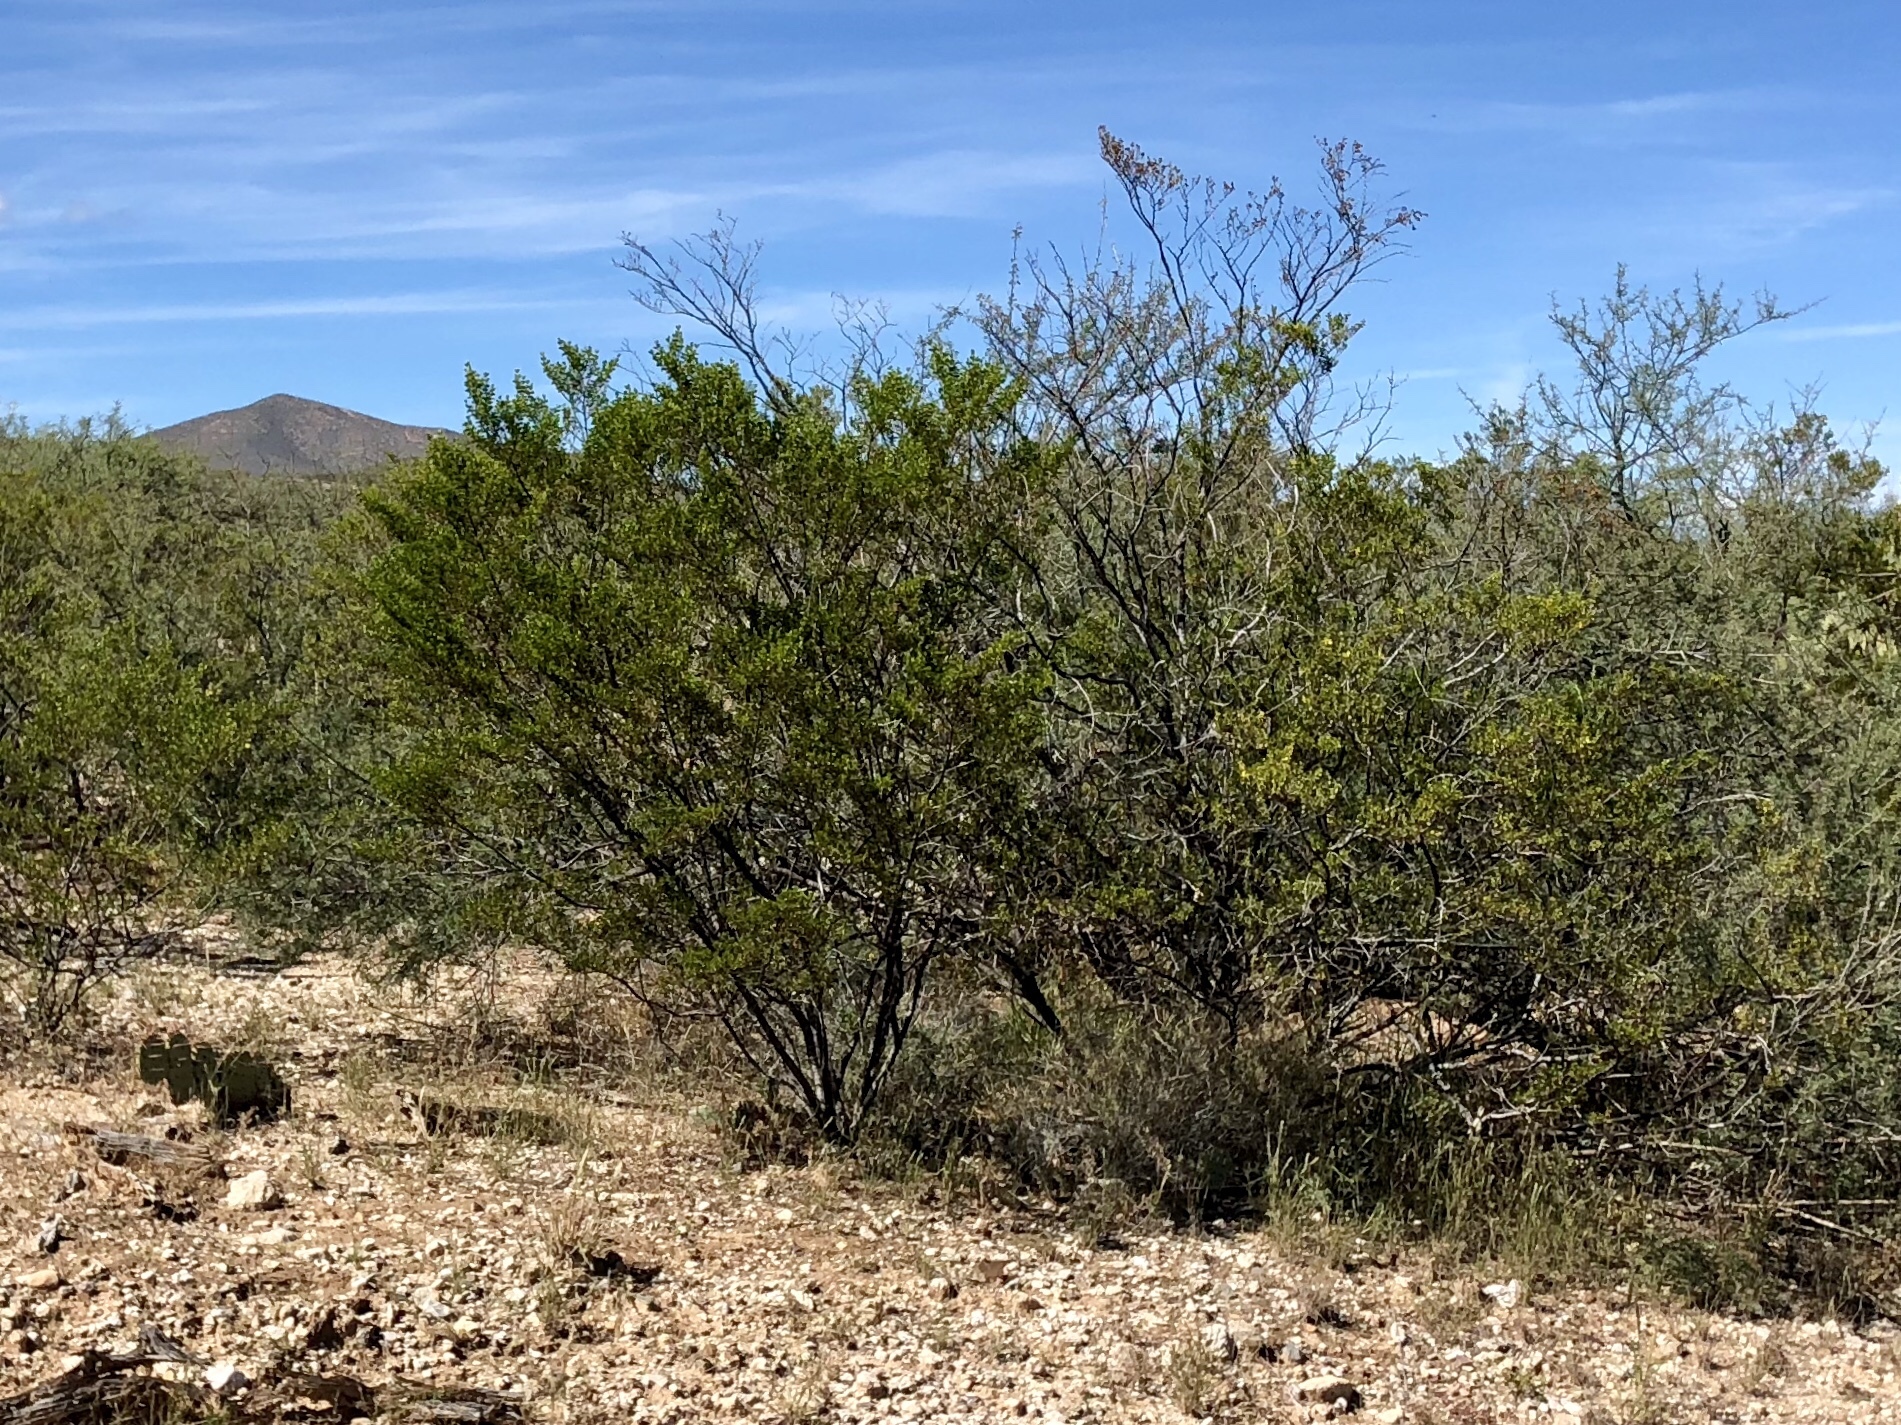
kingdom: Plantae
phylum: Tracheophyta
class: Magnoliopsida
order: Zygophyllales
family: Zygophyllaceae
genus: Larrea
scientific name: Larrea tridentata
